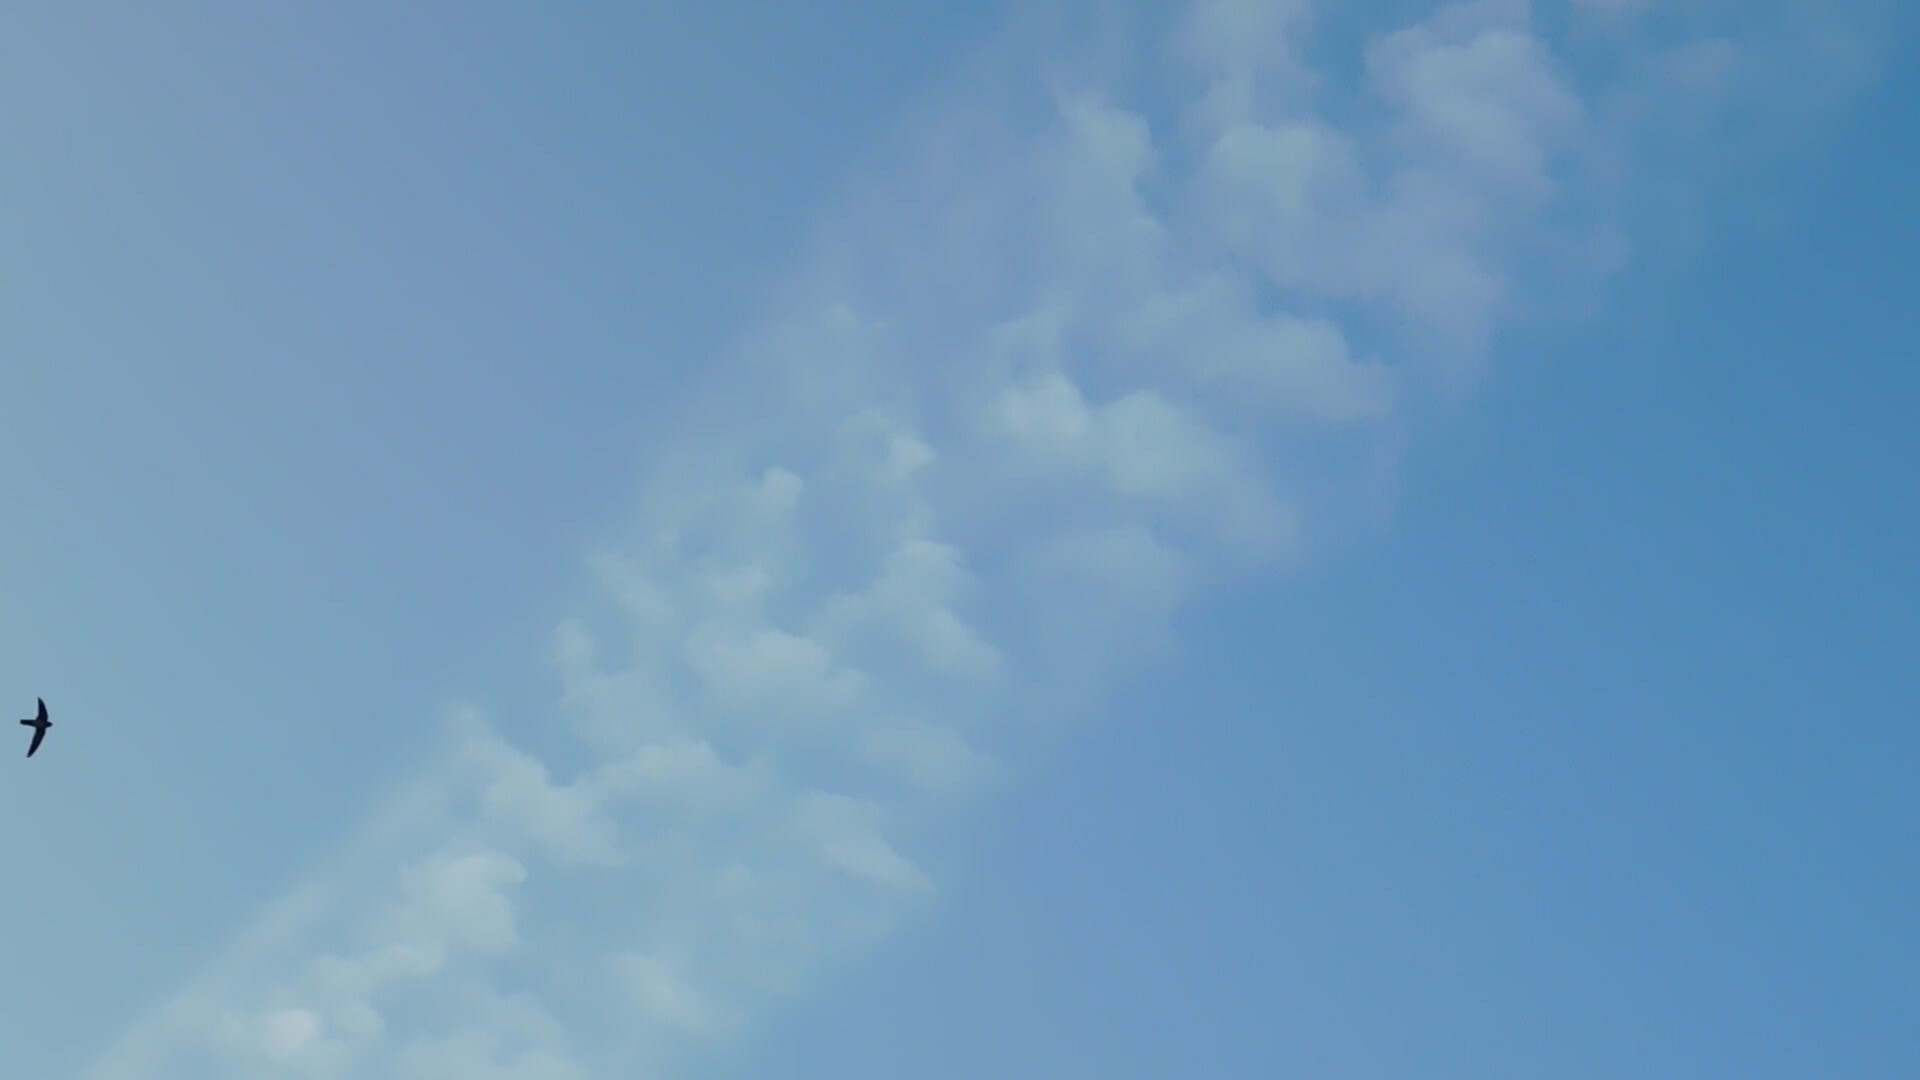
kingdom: Animalia
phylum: Chordata
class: Aves
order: Apodiformes
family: Apodidae
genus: Collocalia
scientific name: Collocalia linchi
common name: Cave swiftlet
